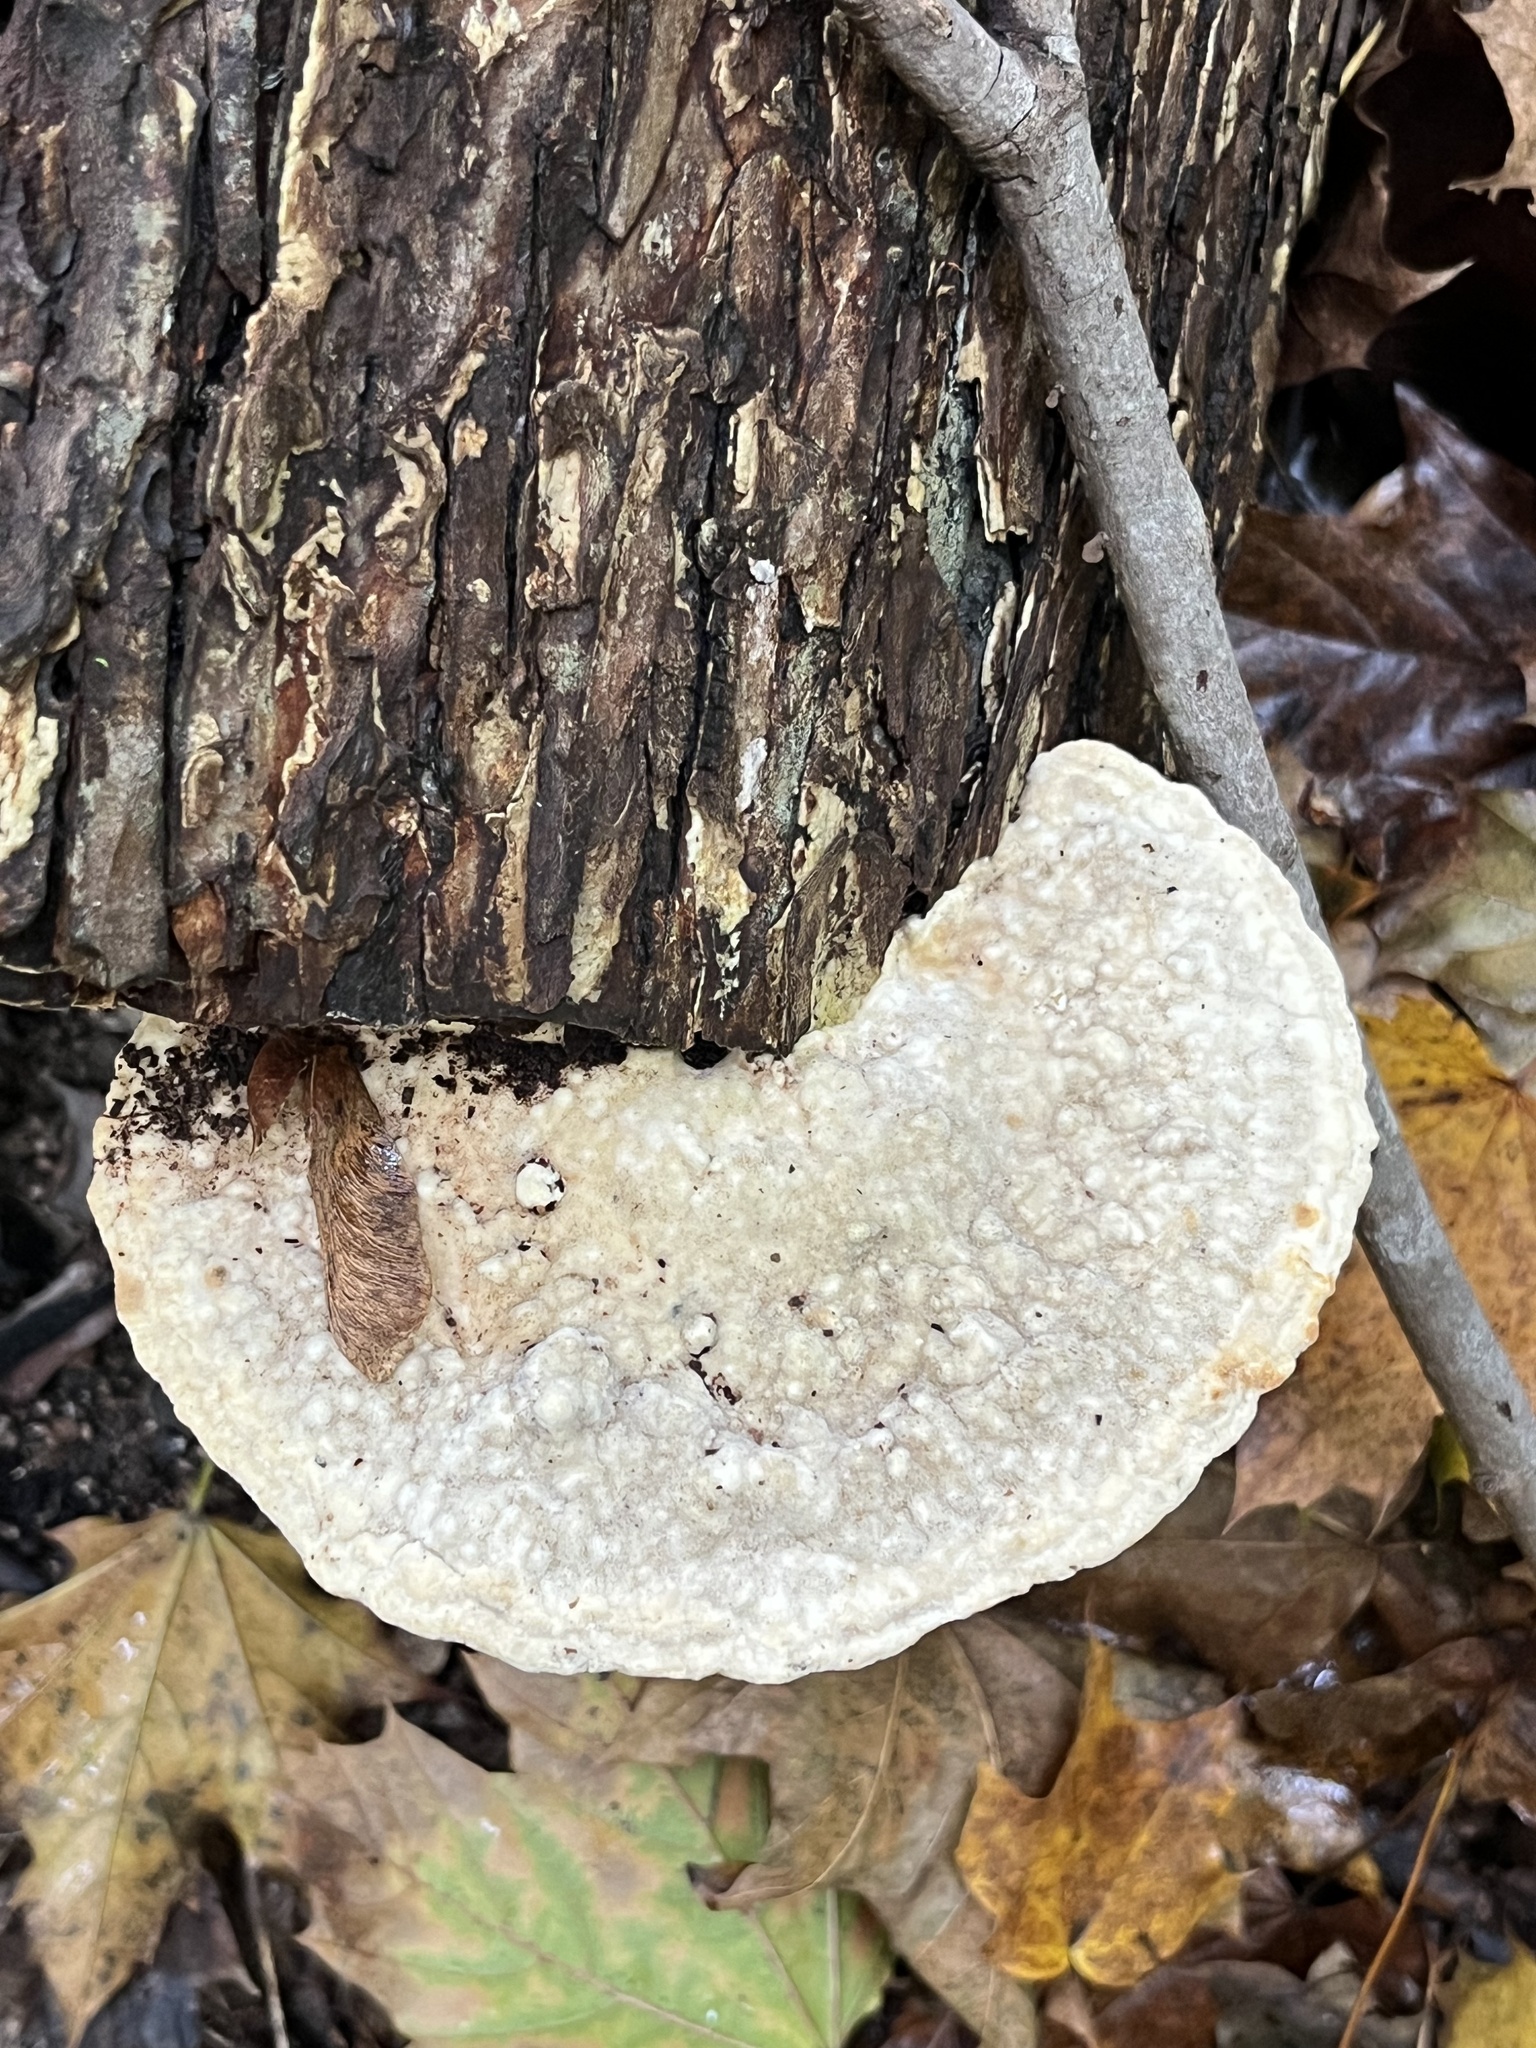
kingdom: Fungi
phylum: Basidiomycota
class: Agaricomycetes
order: Polyporales
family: Polyporaceae
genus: Trametes
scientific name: Trametes gibbosa
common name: Lumpy bracket
